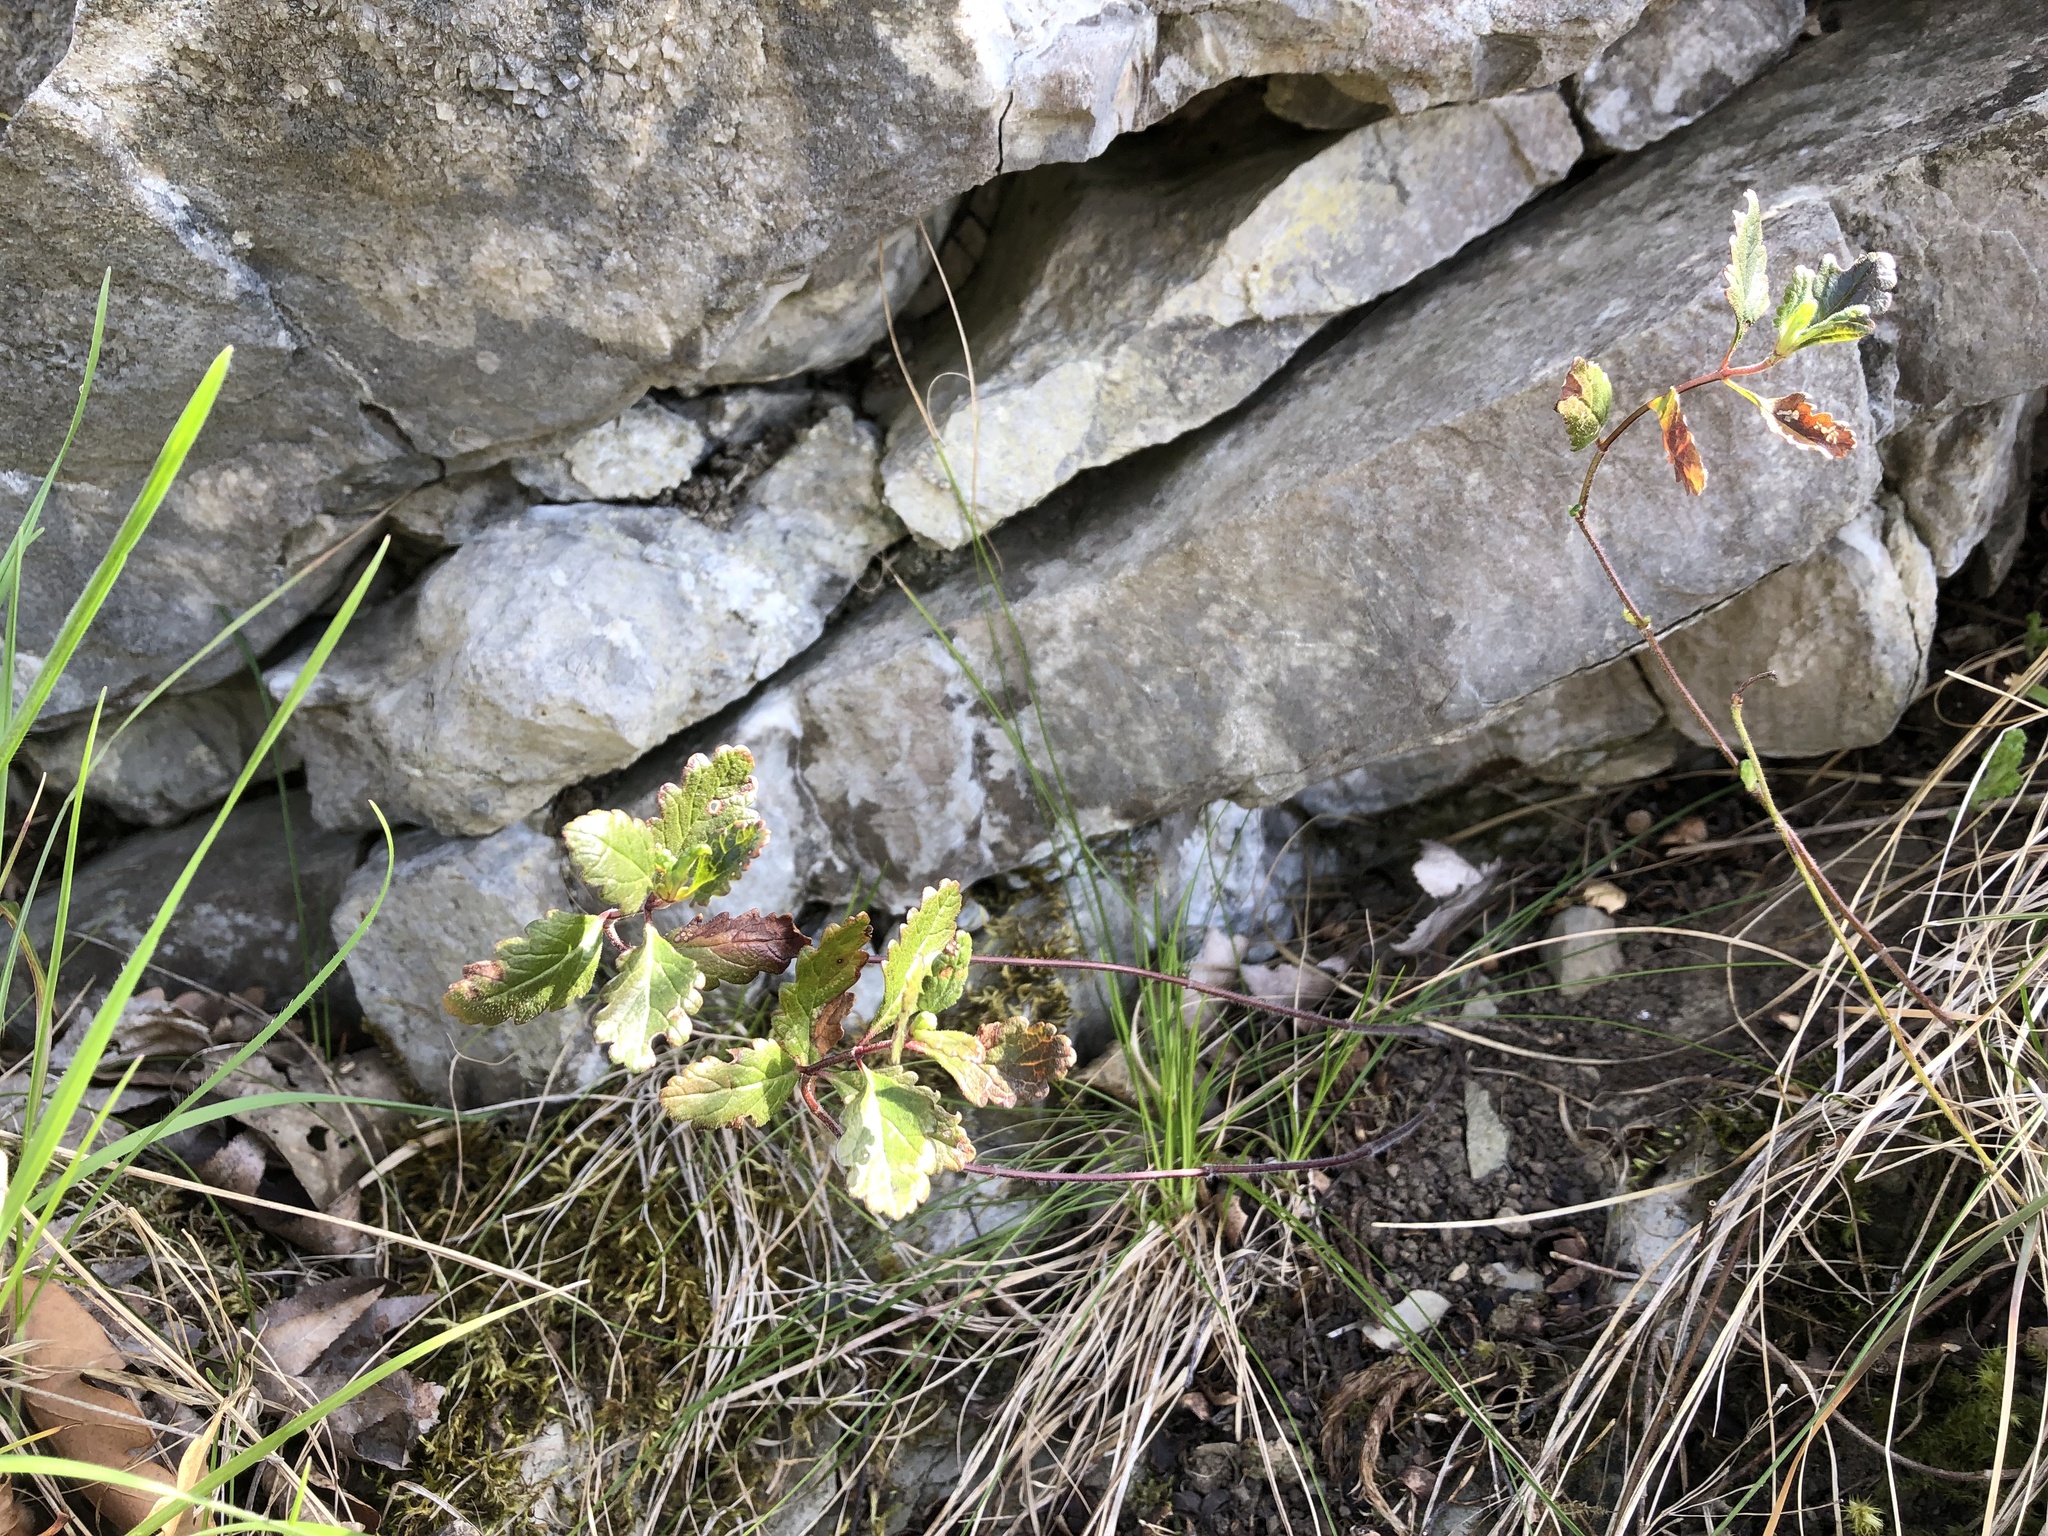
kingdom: Plantae
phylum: Tracheophyta
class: Magnoliopsida
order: Lamiales
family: Lamiaceae
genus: Teucrium
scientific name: Teucrium chamaedrys
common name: Wall germander
